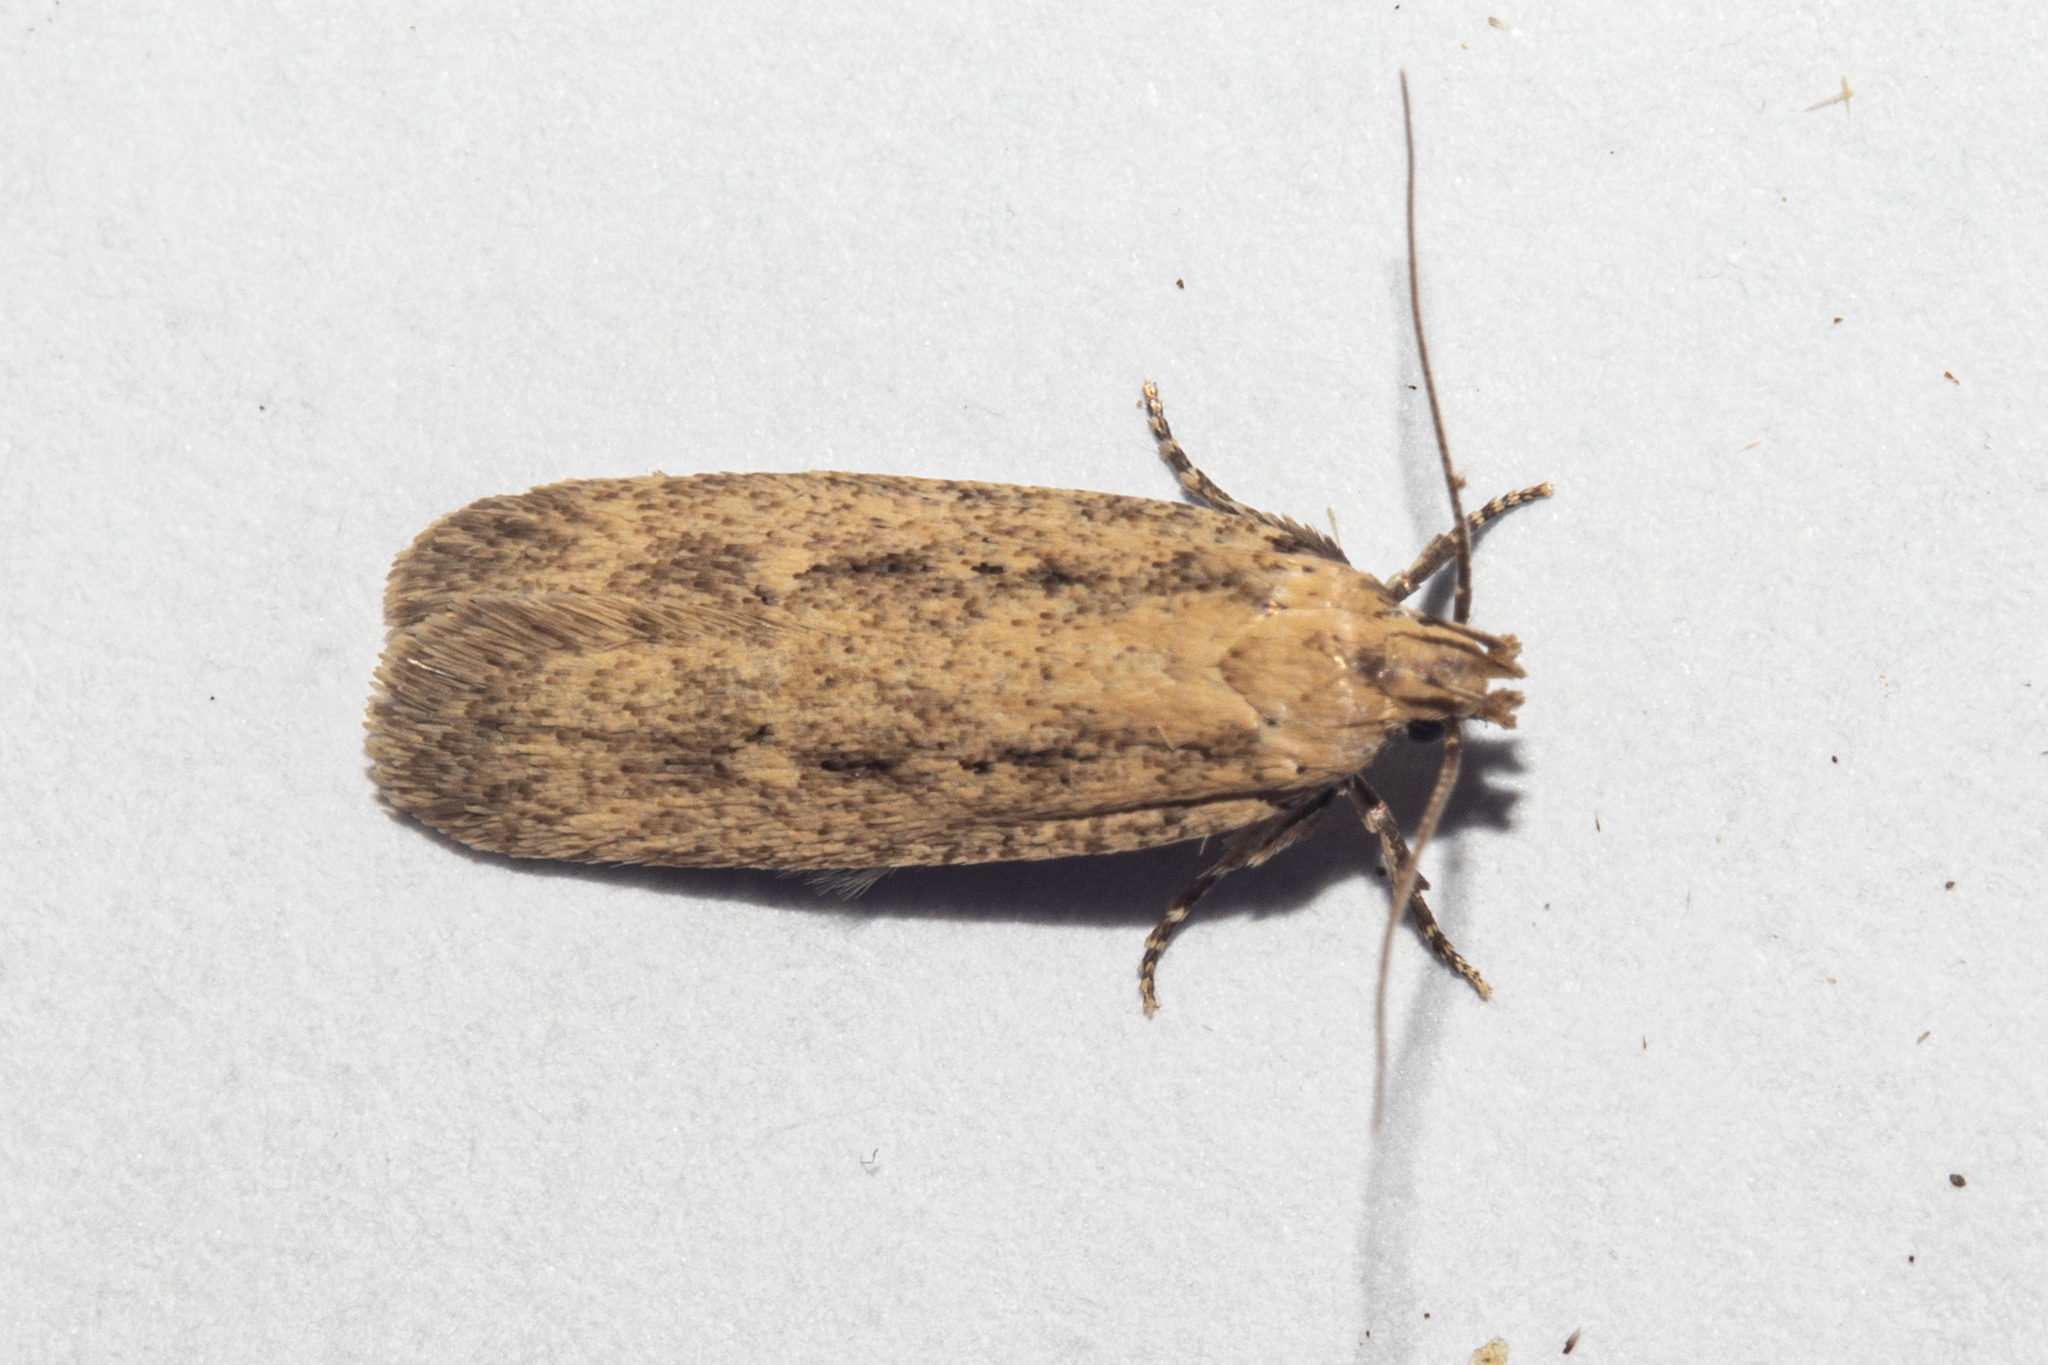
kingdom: Animalia
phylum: Arthropoda
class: Insecta
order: Lepidoptera
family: Gelechiidae
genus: Platyedra
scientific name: Platyedra subcinerea
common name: Moth
